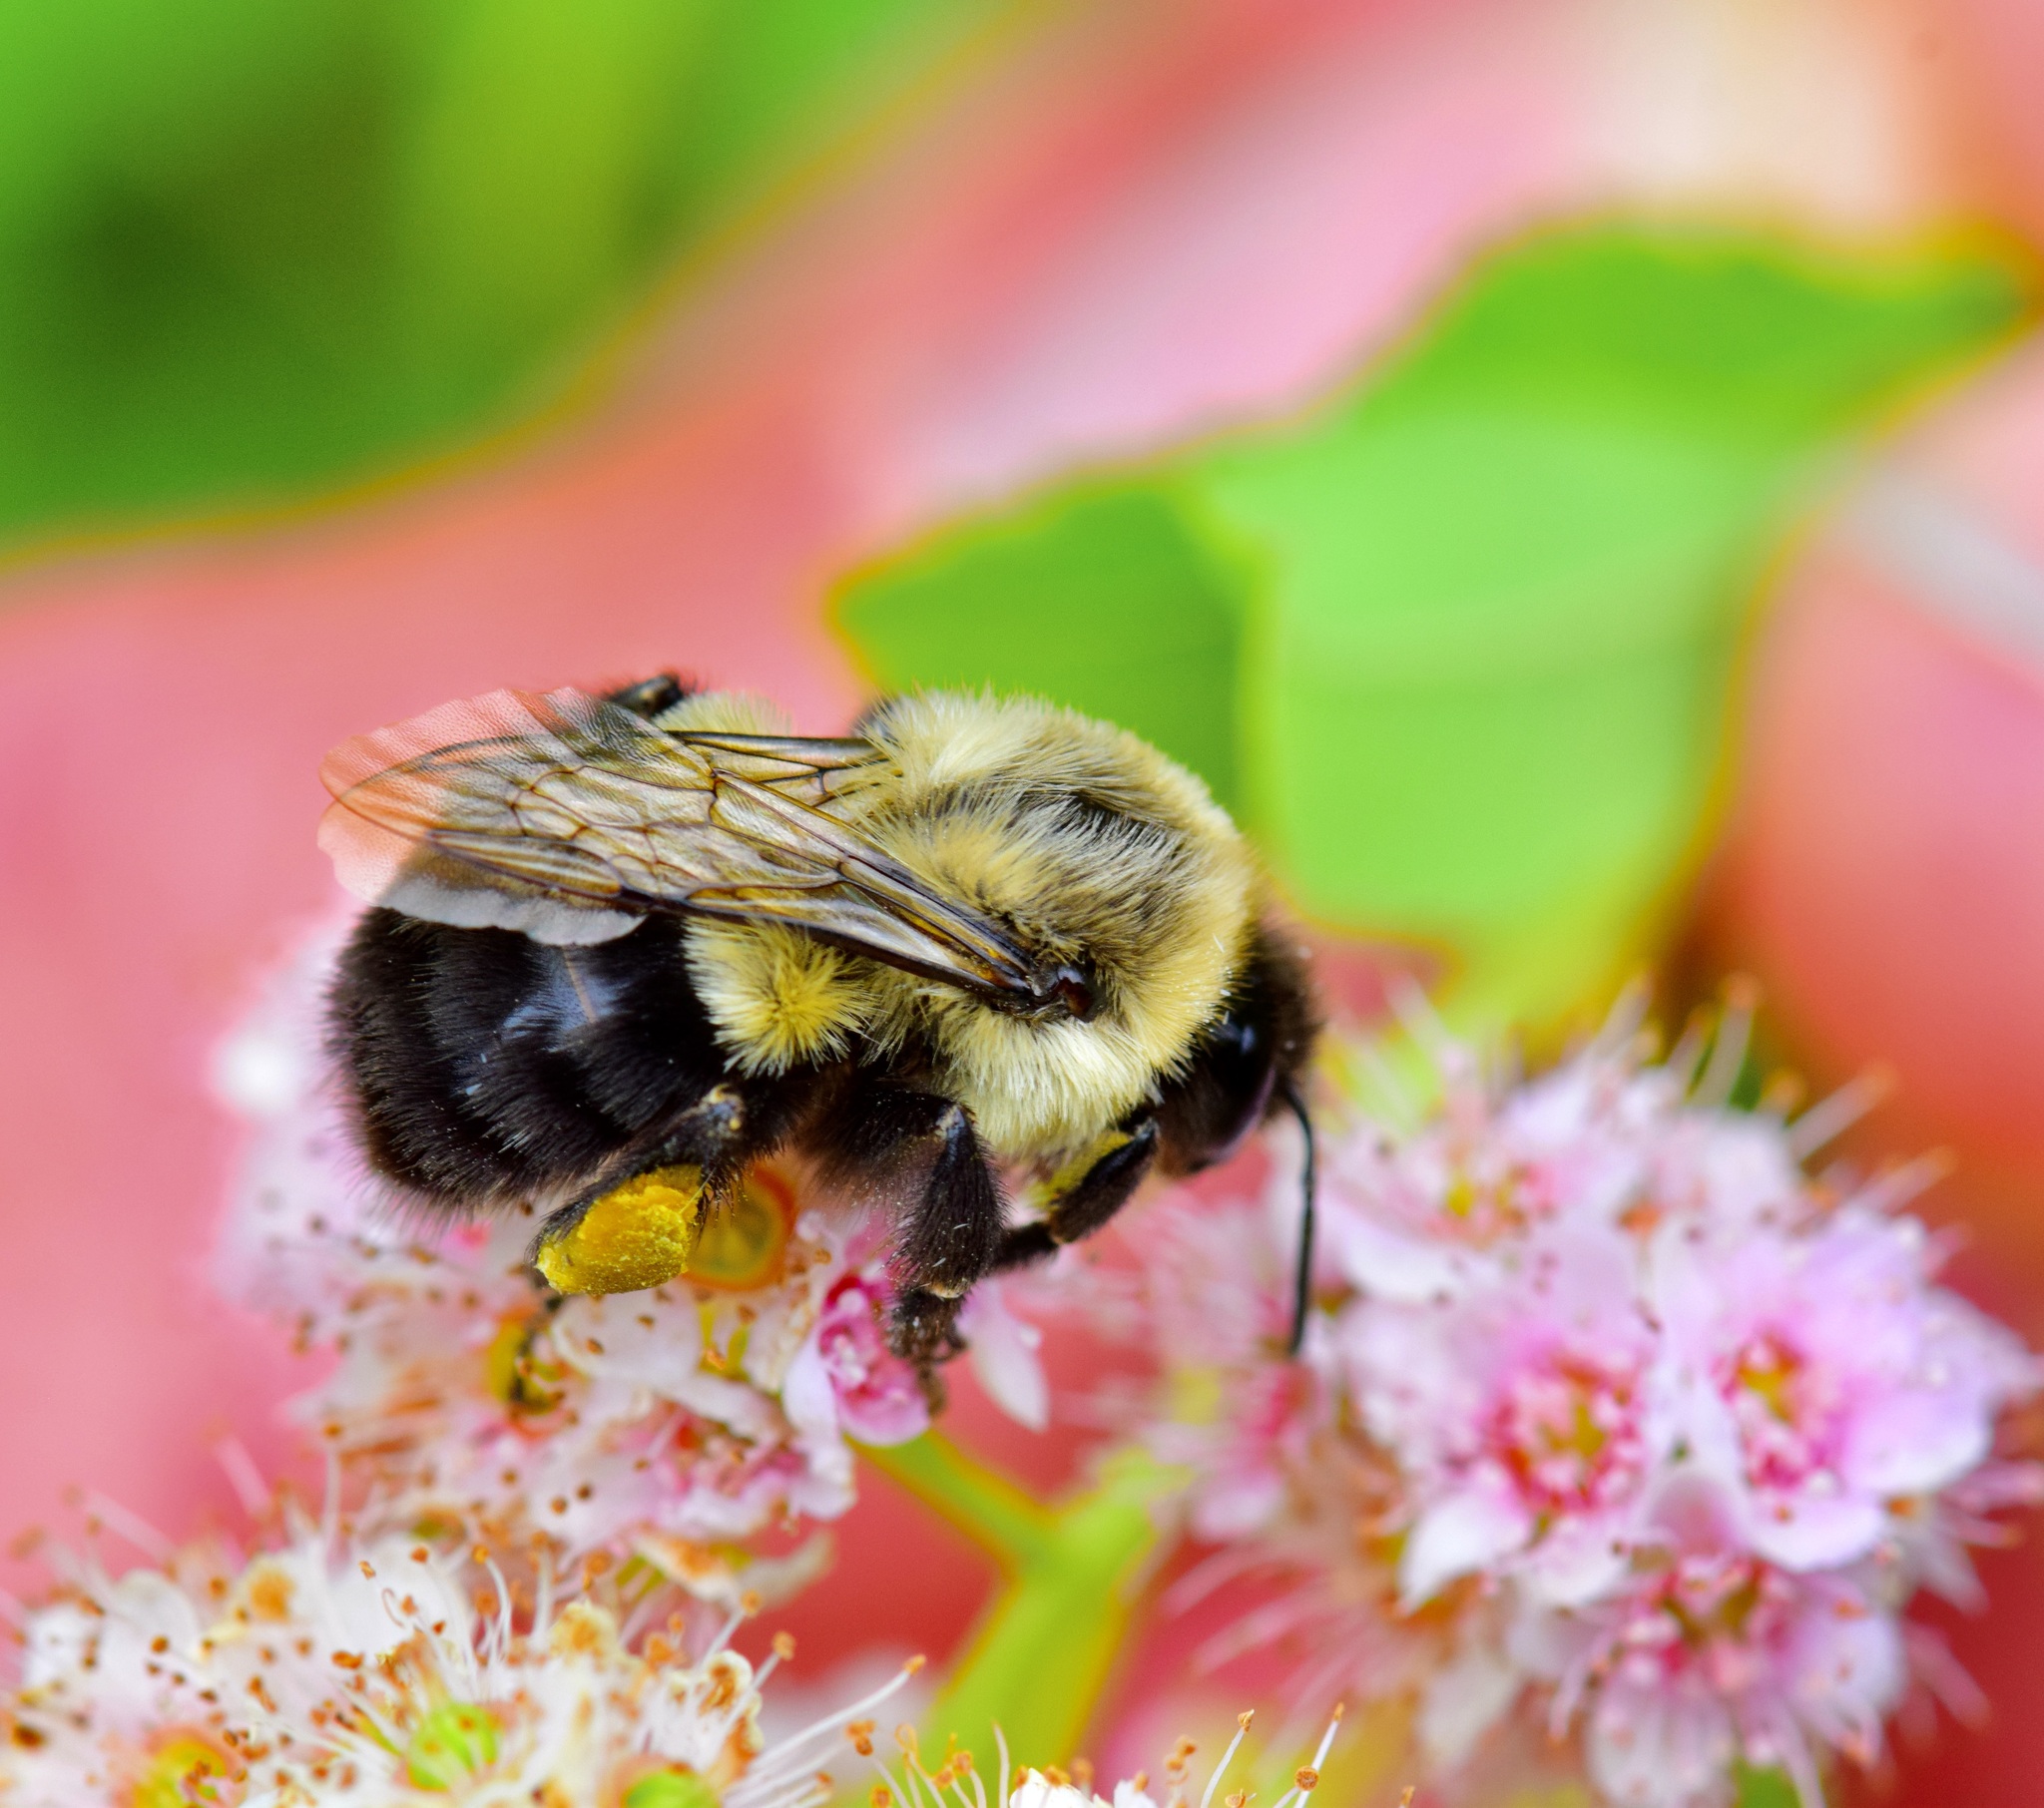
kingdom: Animalia
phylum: Arthropoda
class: Insecta
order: Hymenoptera
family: Apidae
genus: Bombus
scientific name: Bombus impatiens
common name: Common eastern bumble bee
